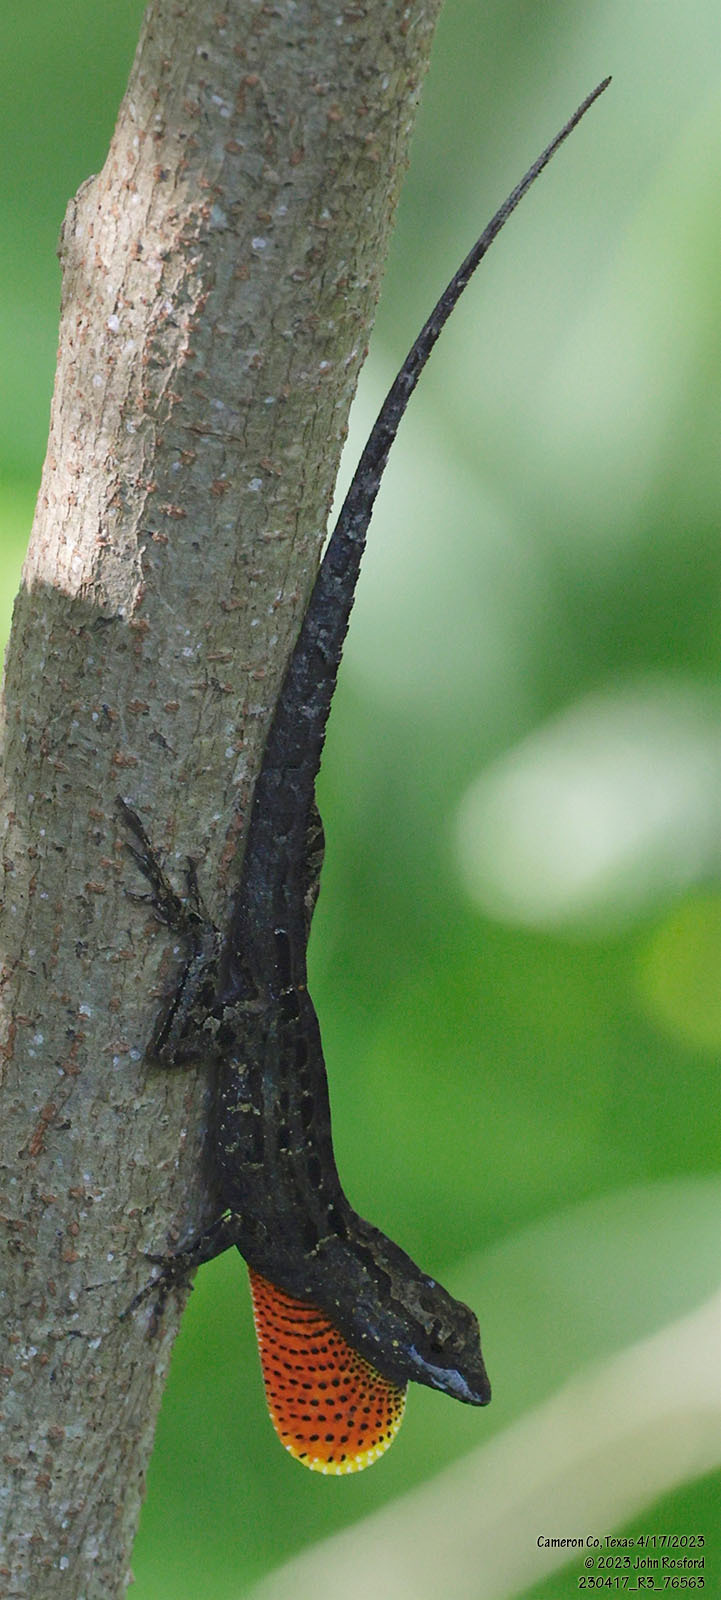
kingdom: Animalia
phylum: Chordata
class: Squamata
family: Dactyloidae
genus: Anolis
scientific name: Anolis sagrei
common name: Brown anole
